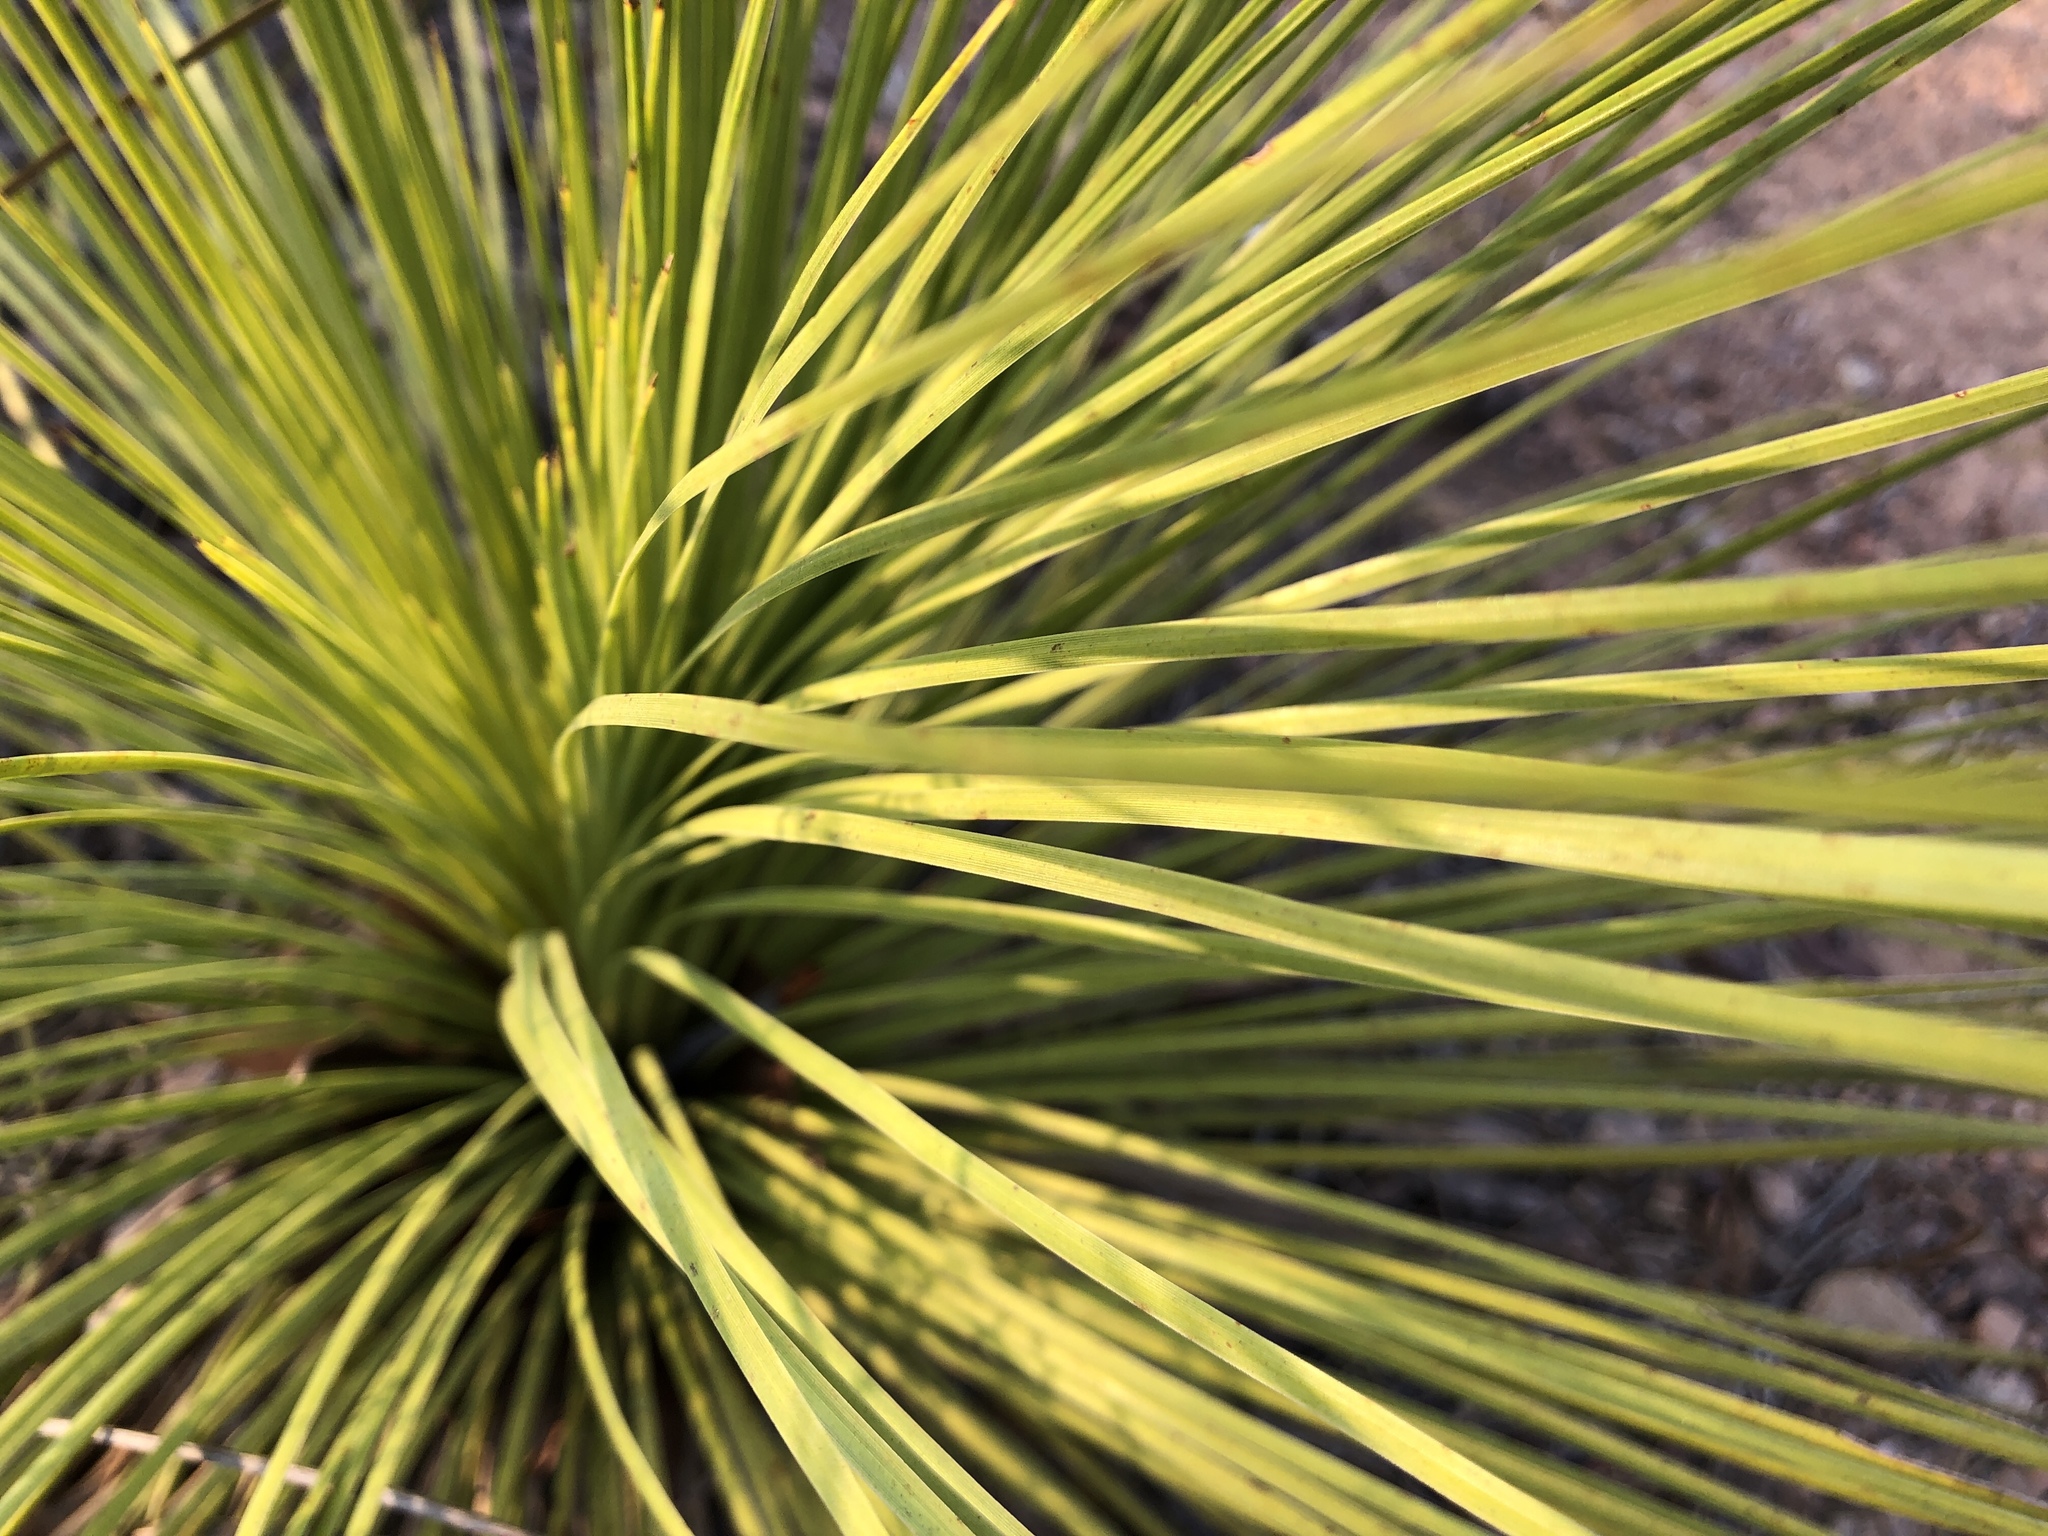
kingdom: Plantae
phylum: Tracheophyta
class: Liliopsida
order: Asparagales
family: Asphodelaceae
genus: Xanthorrhoea
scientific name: Xanthorrhoea latifolia
